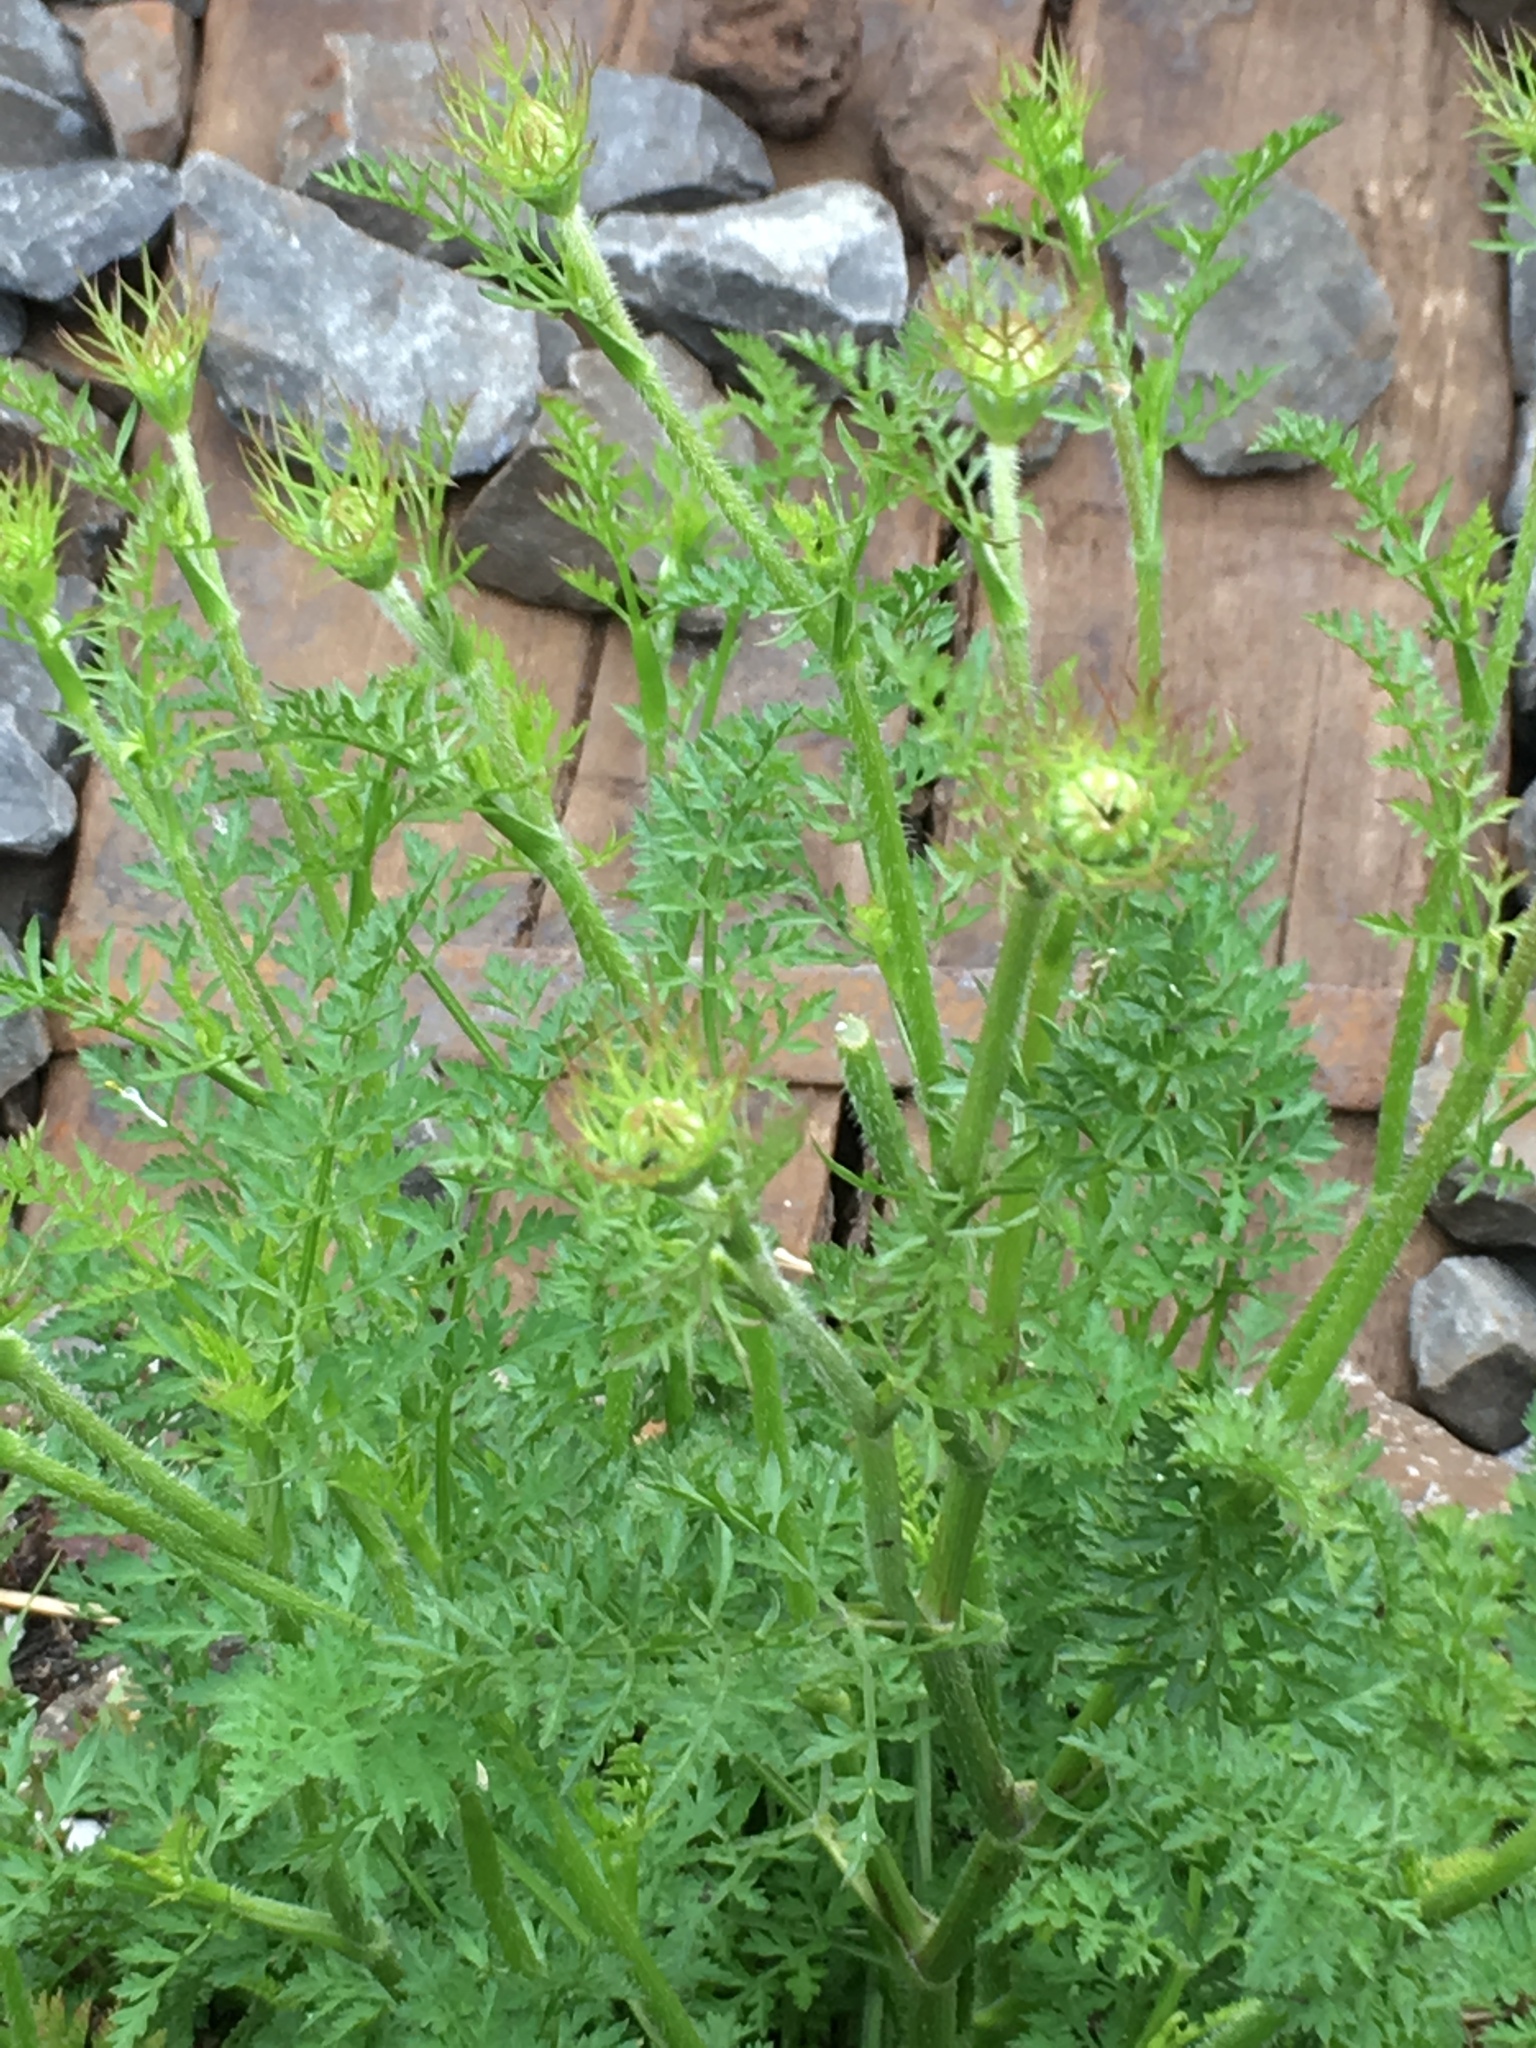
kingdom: Plantae
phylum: Tracheophyta
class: Magnoliopsida
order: Apiales
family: Apiaceae
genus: Daucus
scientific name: Daucus carota
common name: Wild carrot
